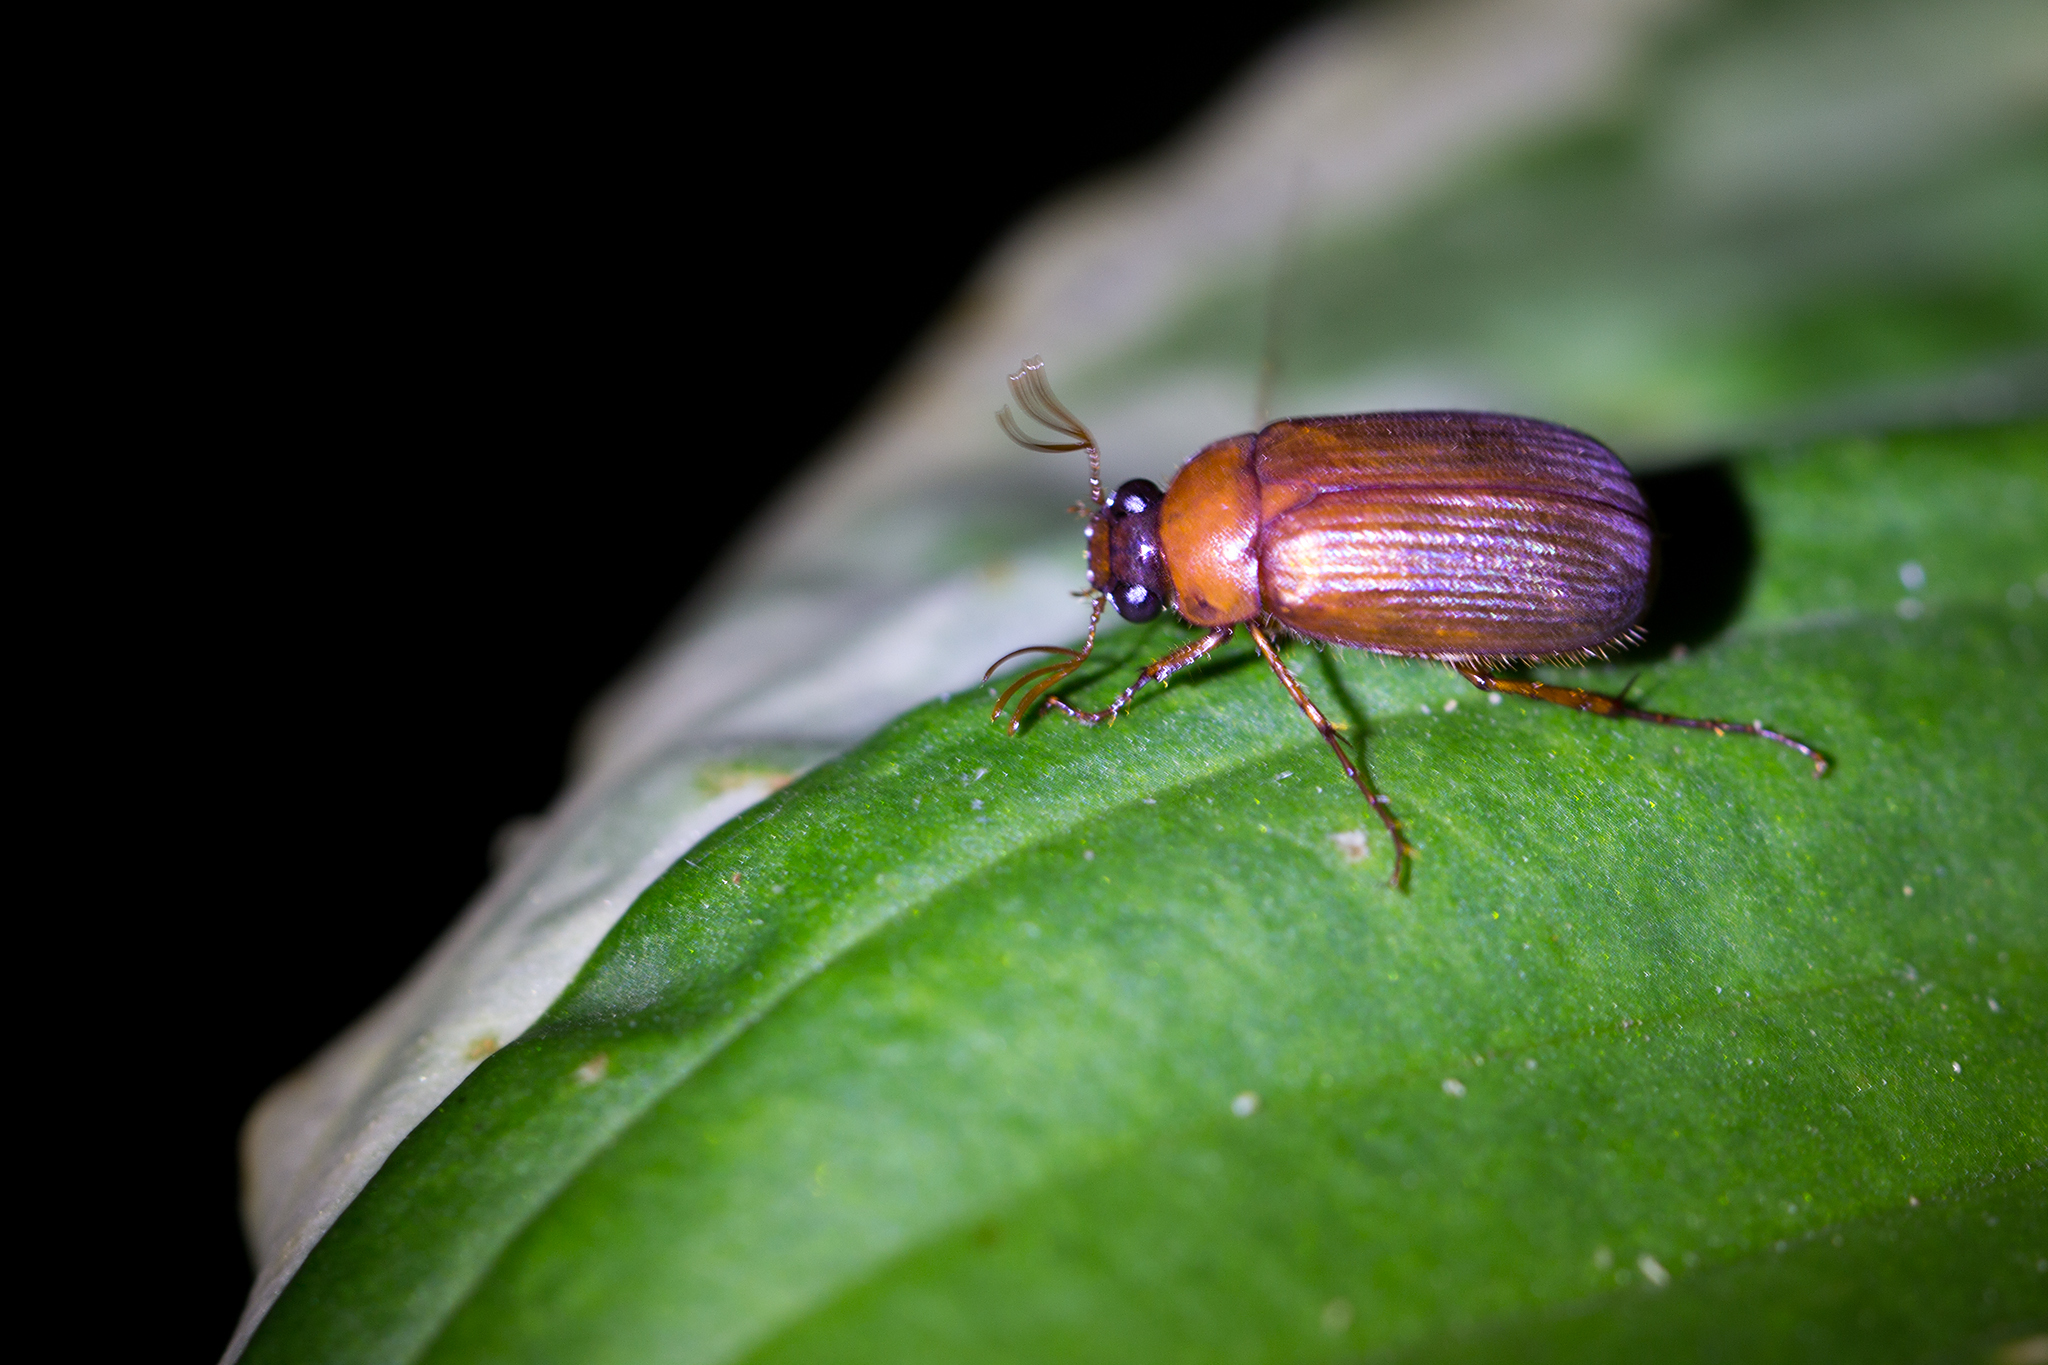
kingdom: Animalia
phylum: Arthropoda
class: Insecta
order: Coleoptera
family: Scarabaeidae
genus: Serica
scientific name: Serica brunnea
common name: Brown chafer
